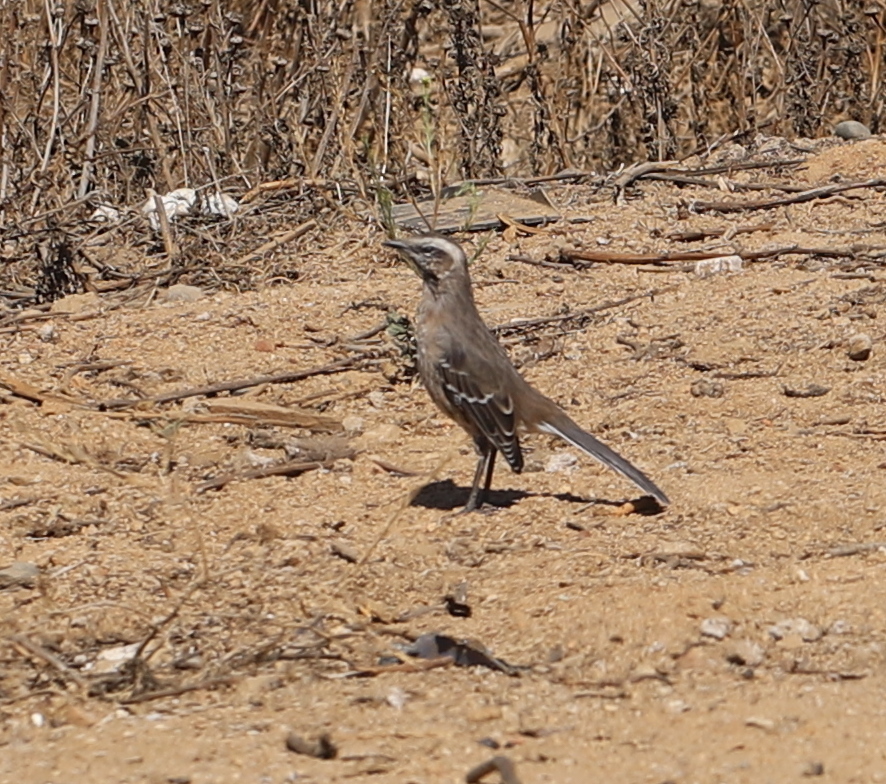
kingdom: Animalia
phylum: Chordata
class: Aves
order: Passeriformes
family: Mimidae
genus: Mimus
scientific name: Mimus thenca
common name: Chilean mockingbird
